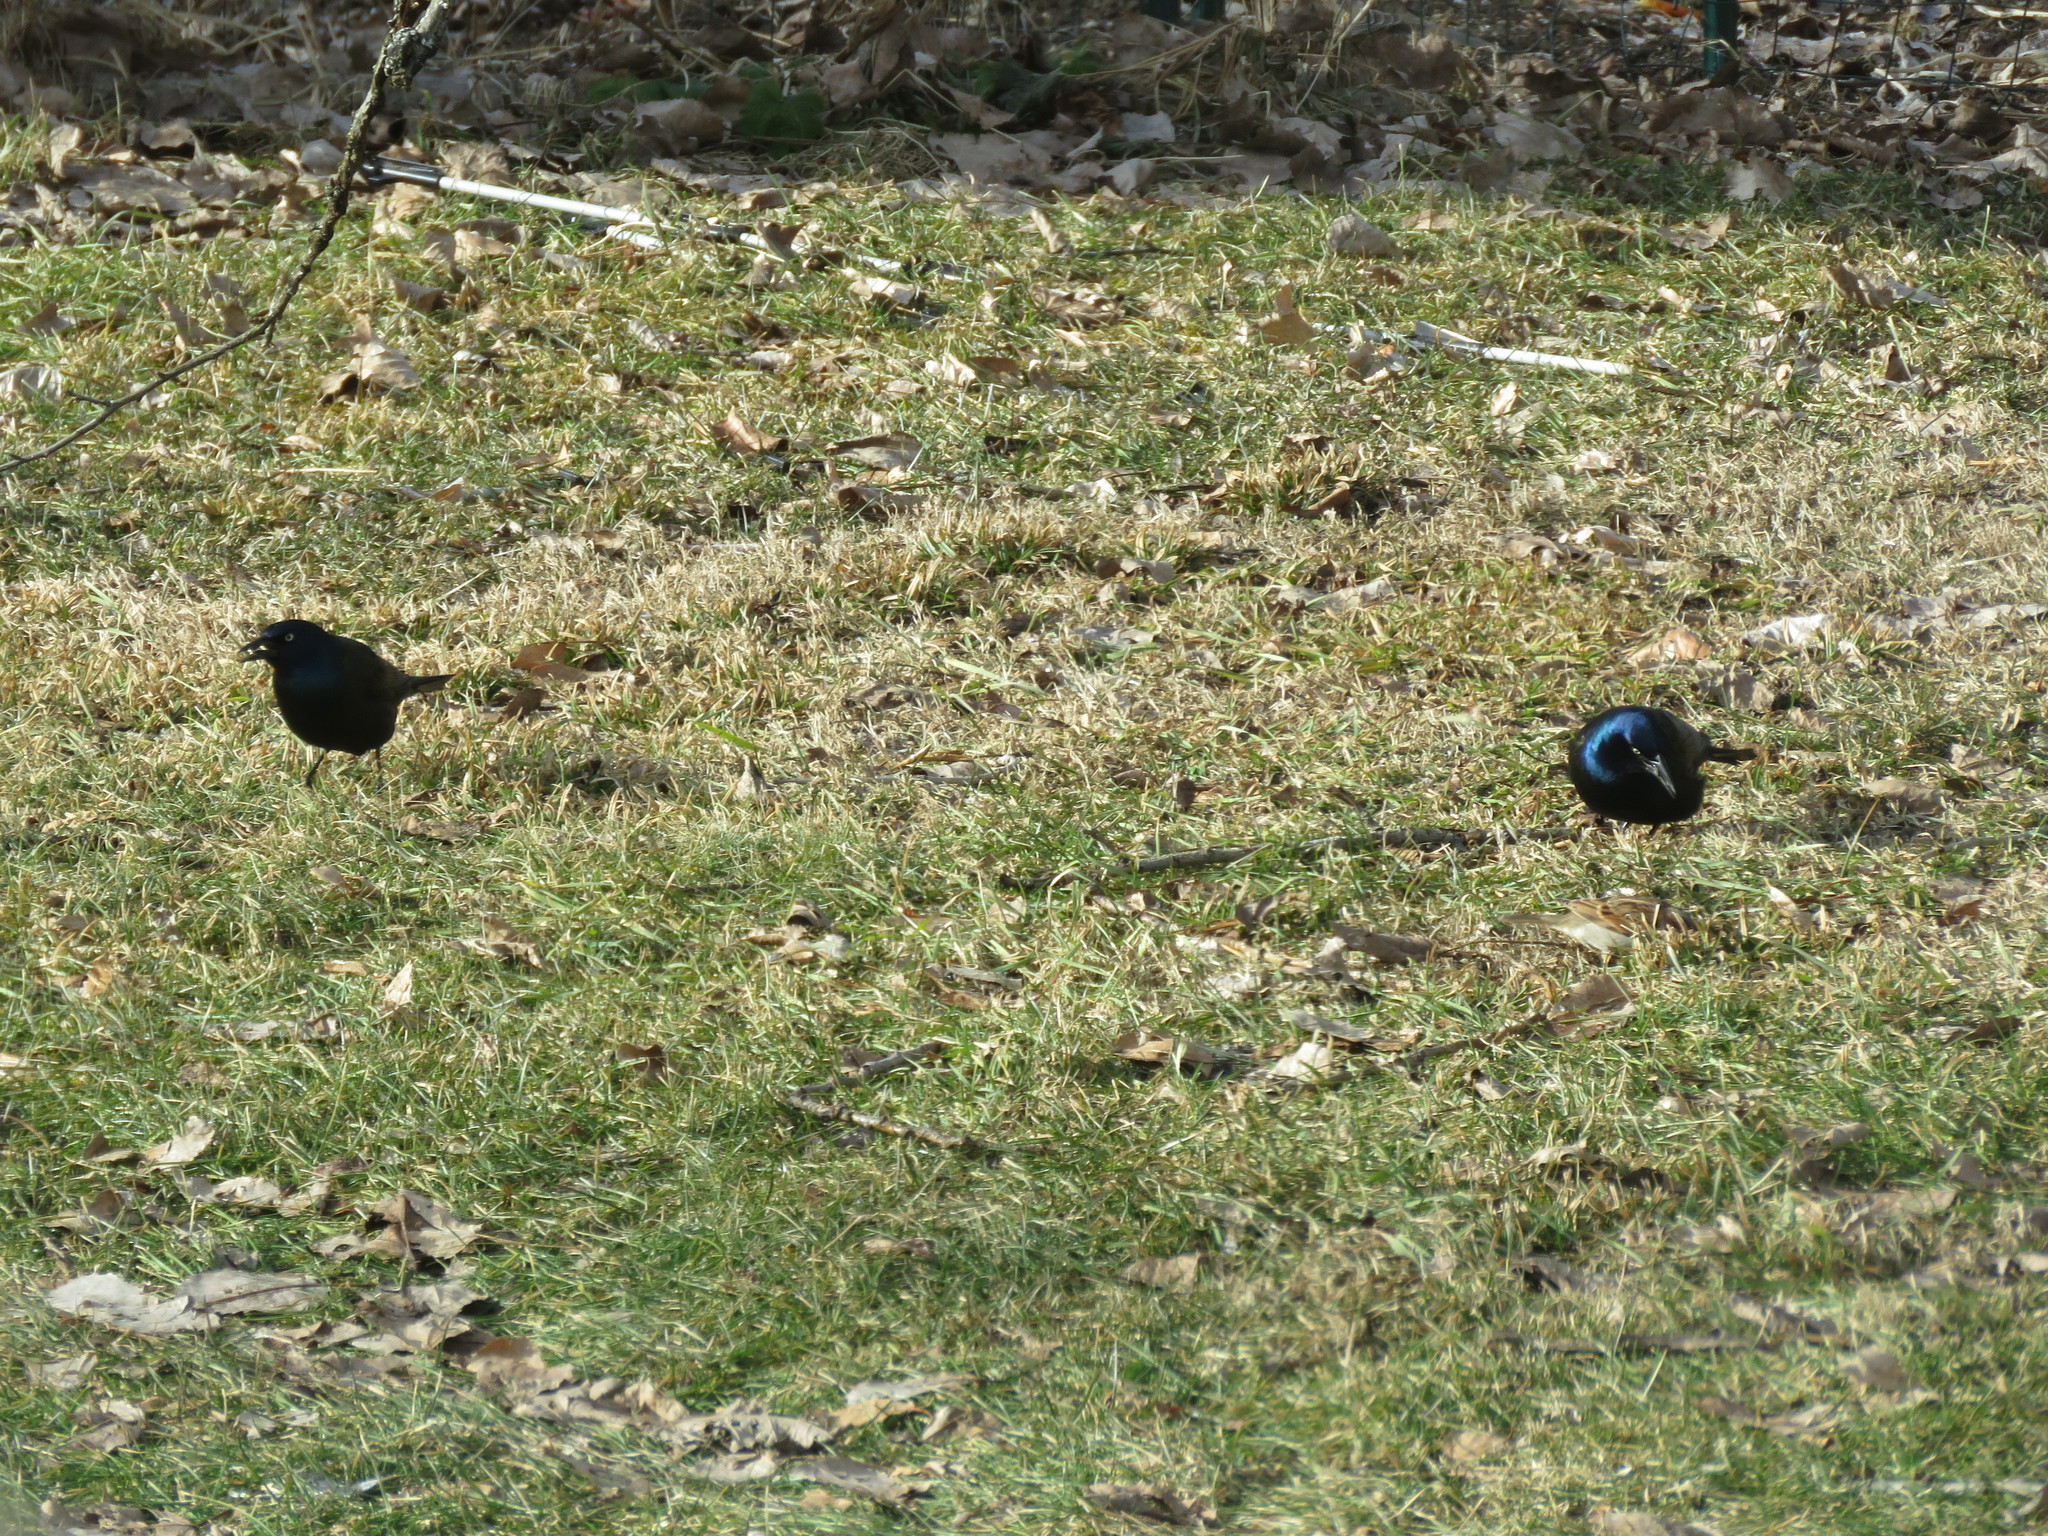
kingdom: Animalia
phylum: Chordata
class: Aves
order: Passeriformes
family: Icteridae
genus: Quiscalus
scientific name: Quiscalus quiscula
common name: Common grackle
